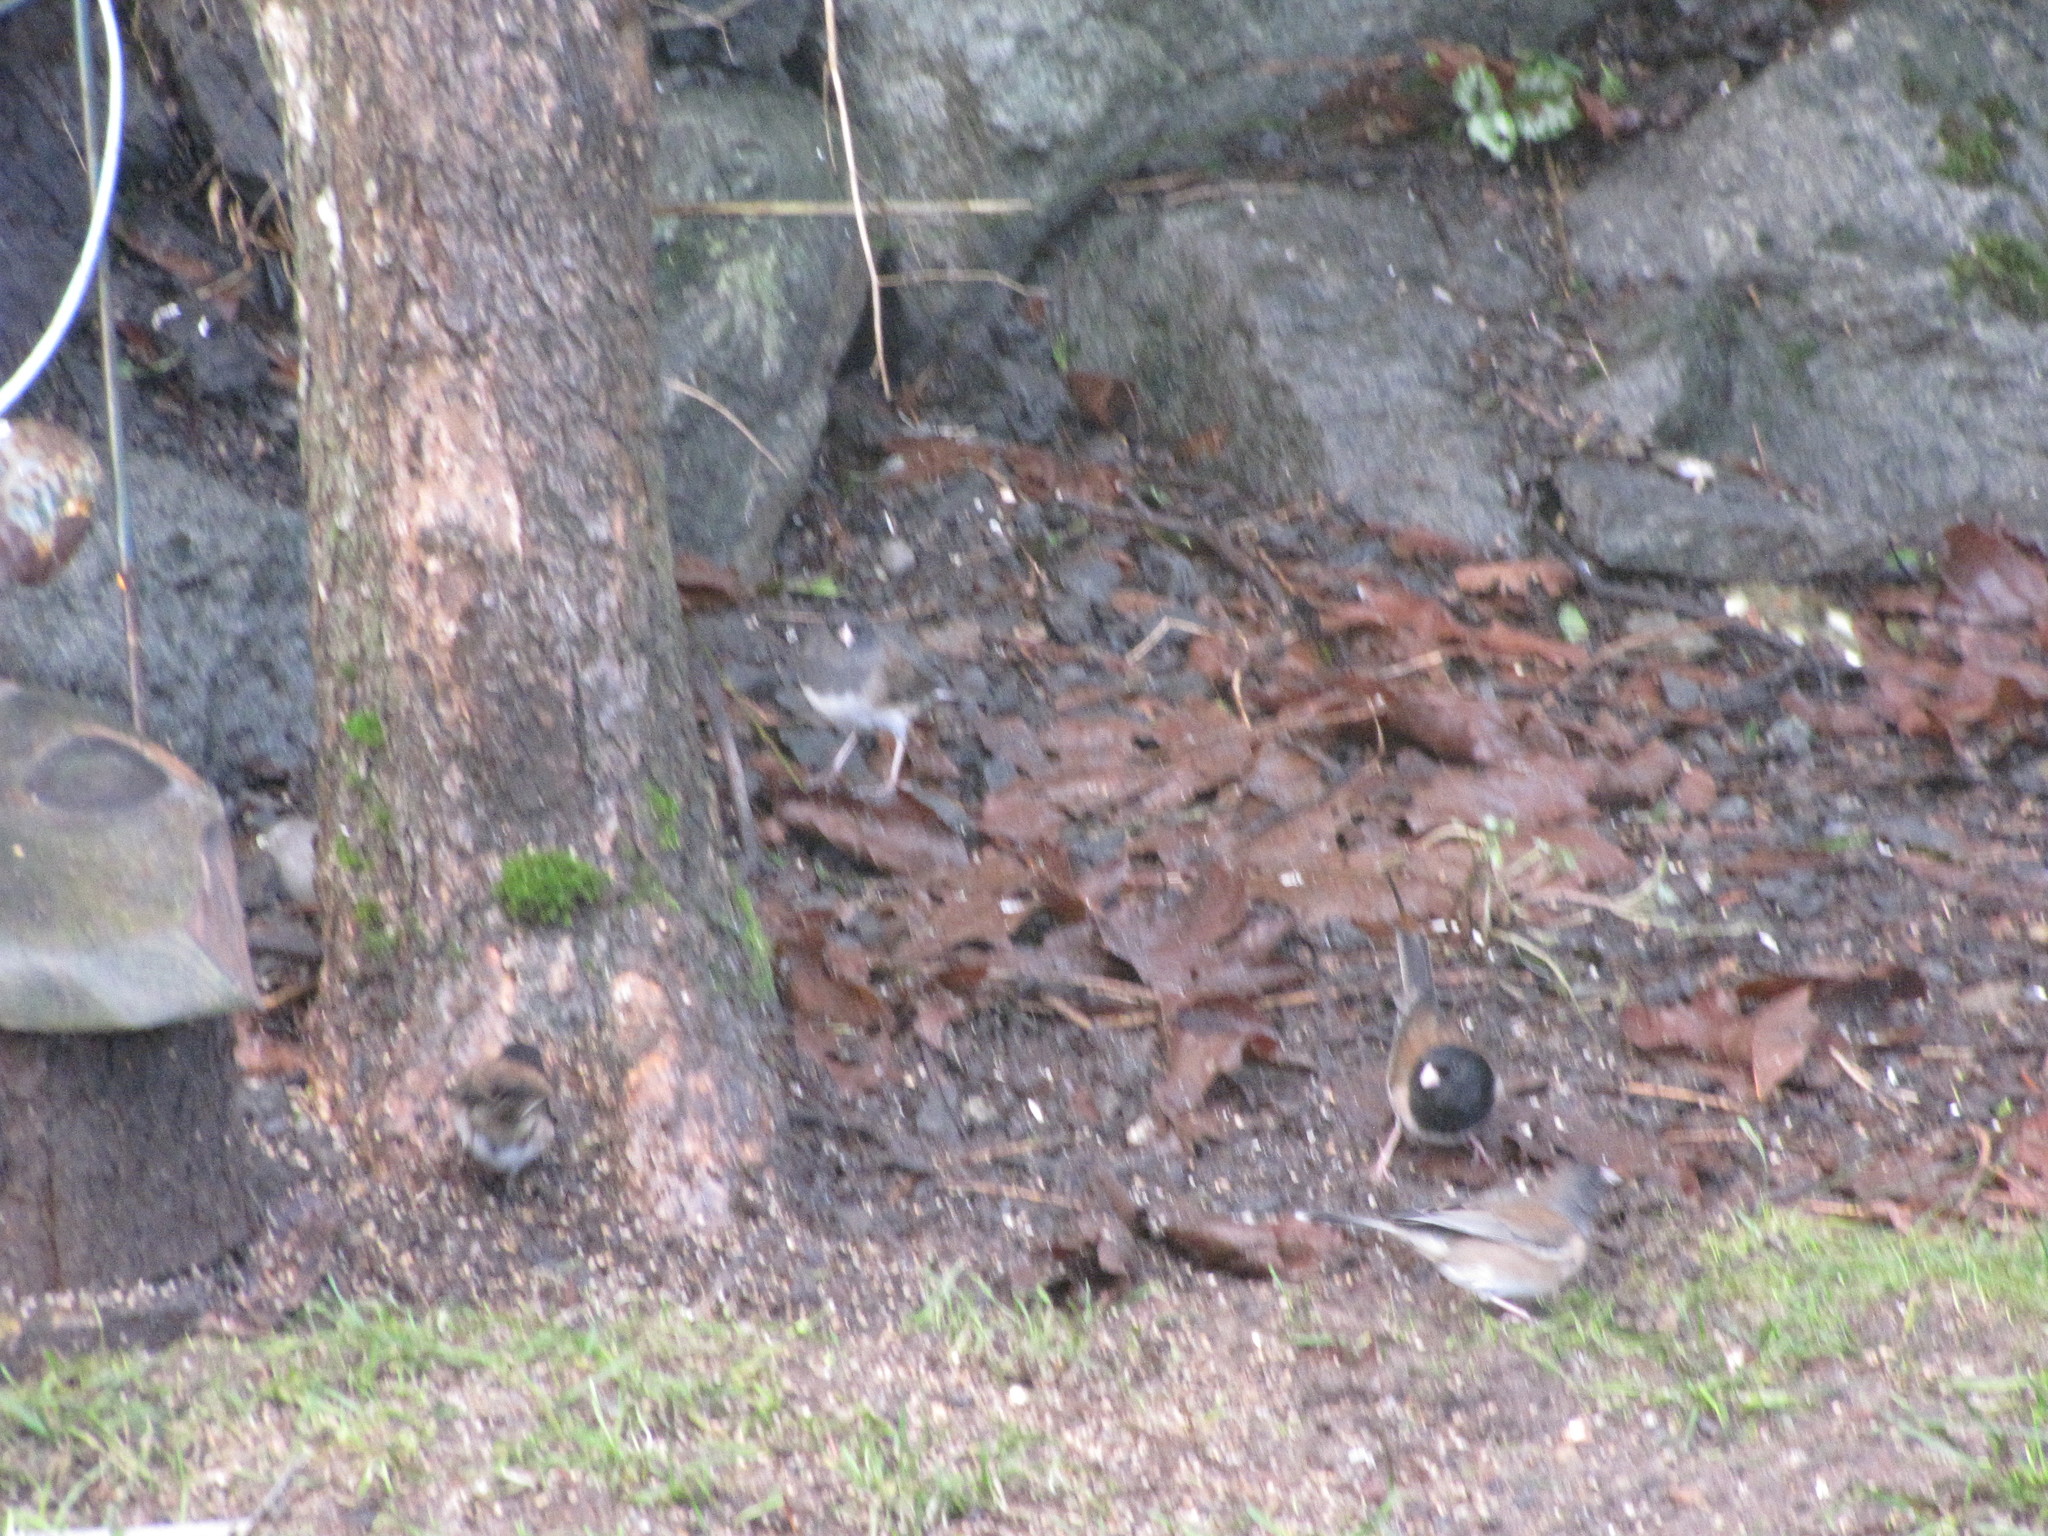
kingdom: Animalia
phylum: Chordata
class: Aves
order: Passeriformes
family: Passerellidae
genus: Junco
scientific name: Junco hyemalis
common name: Dark-eyed junco
